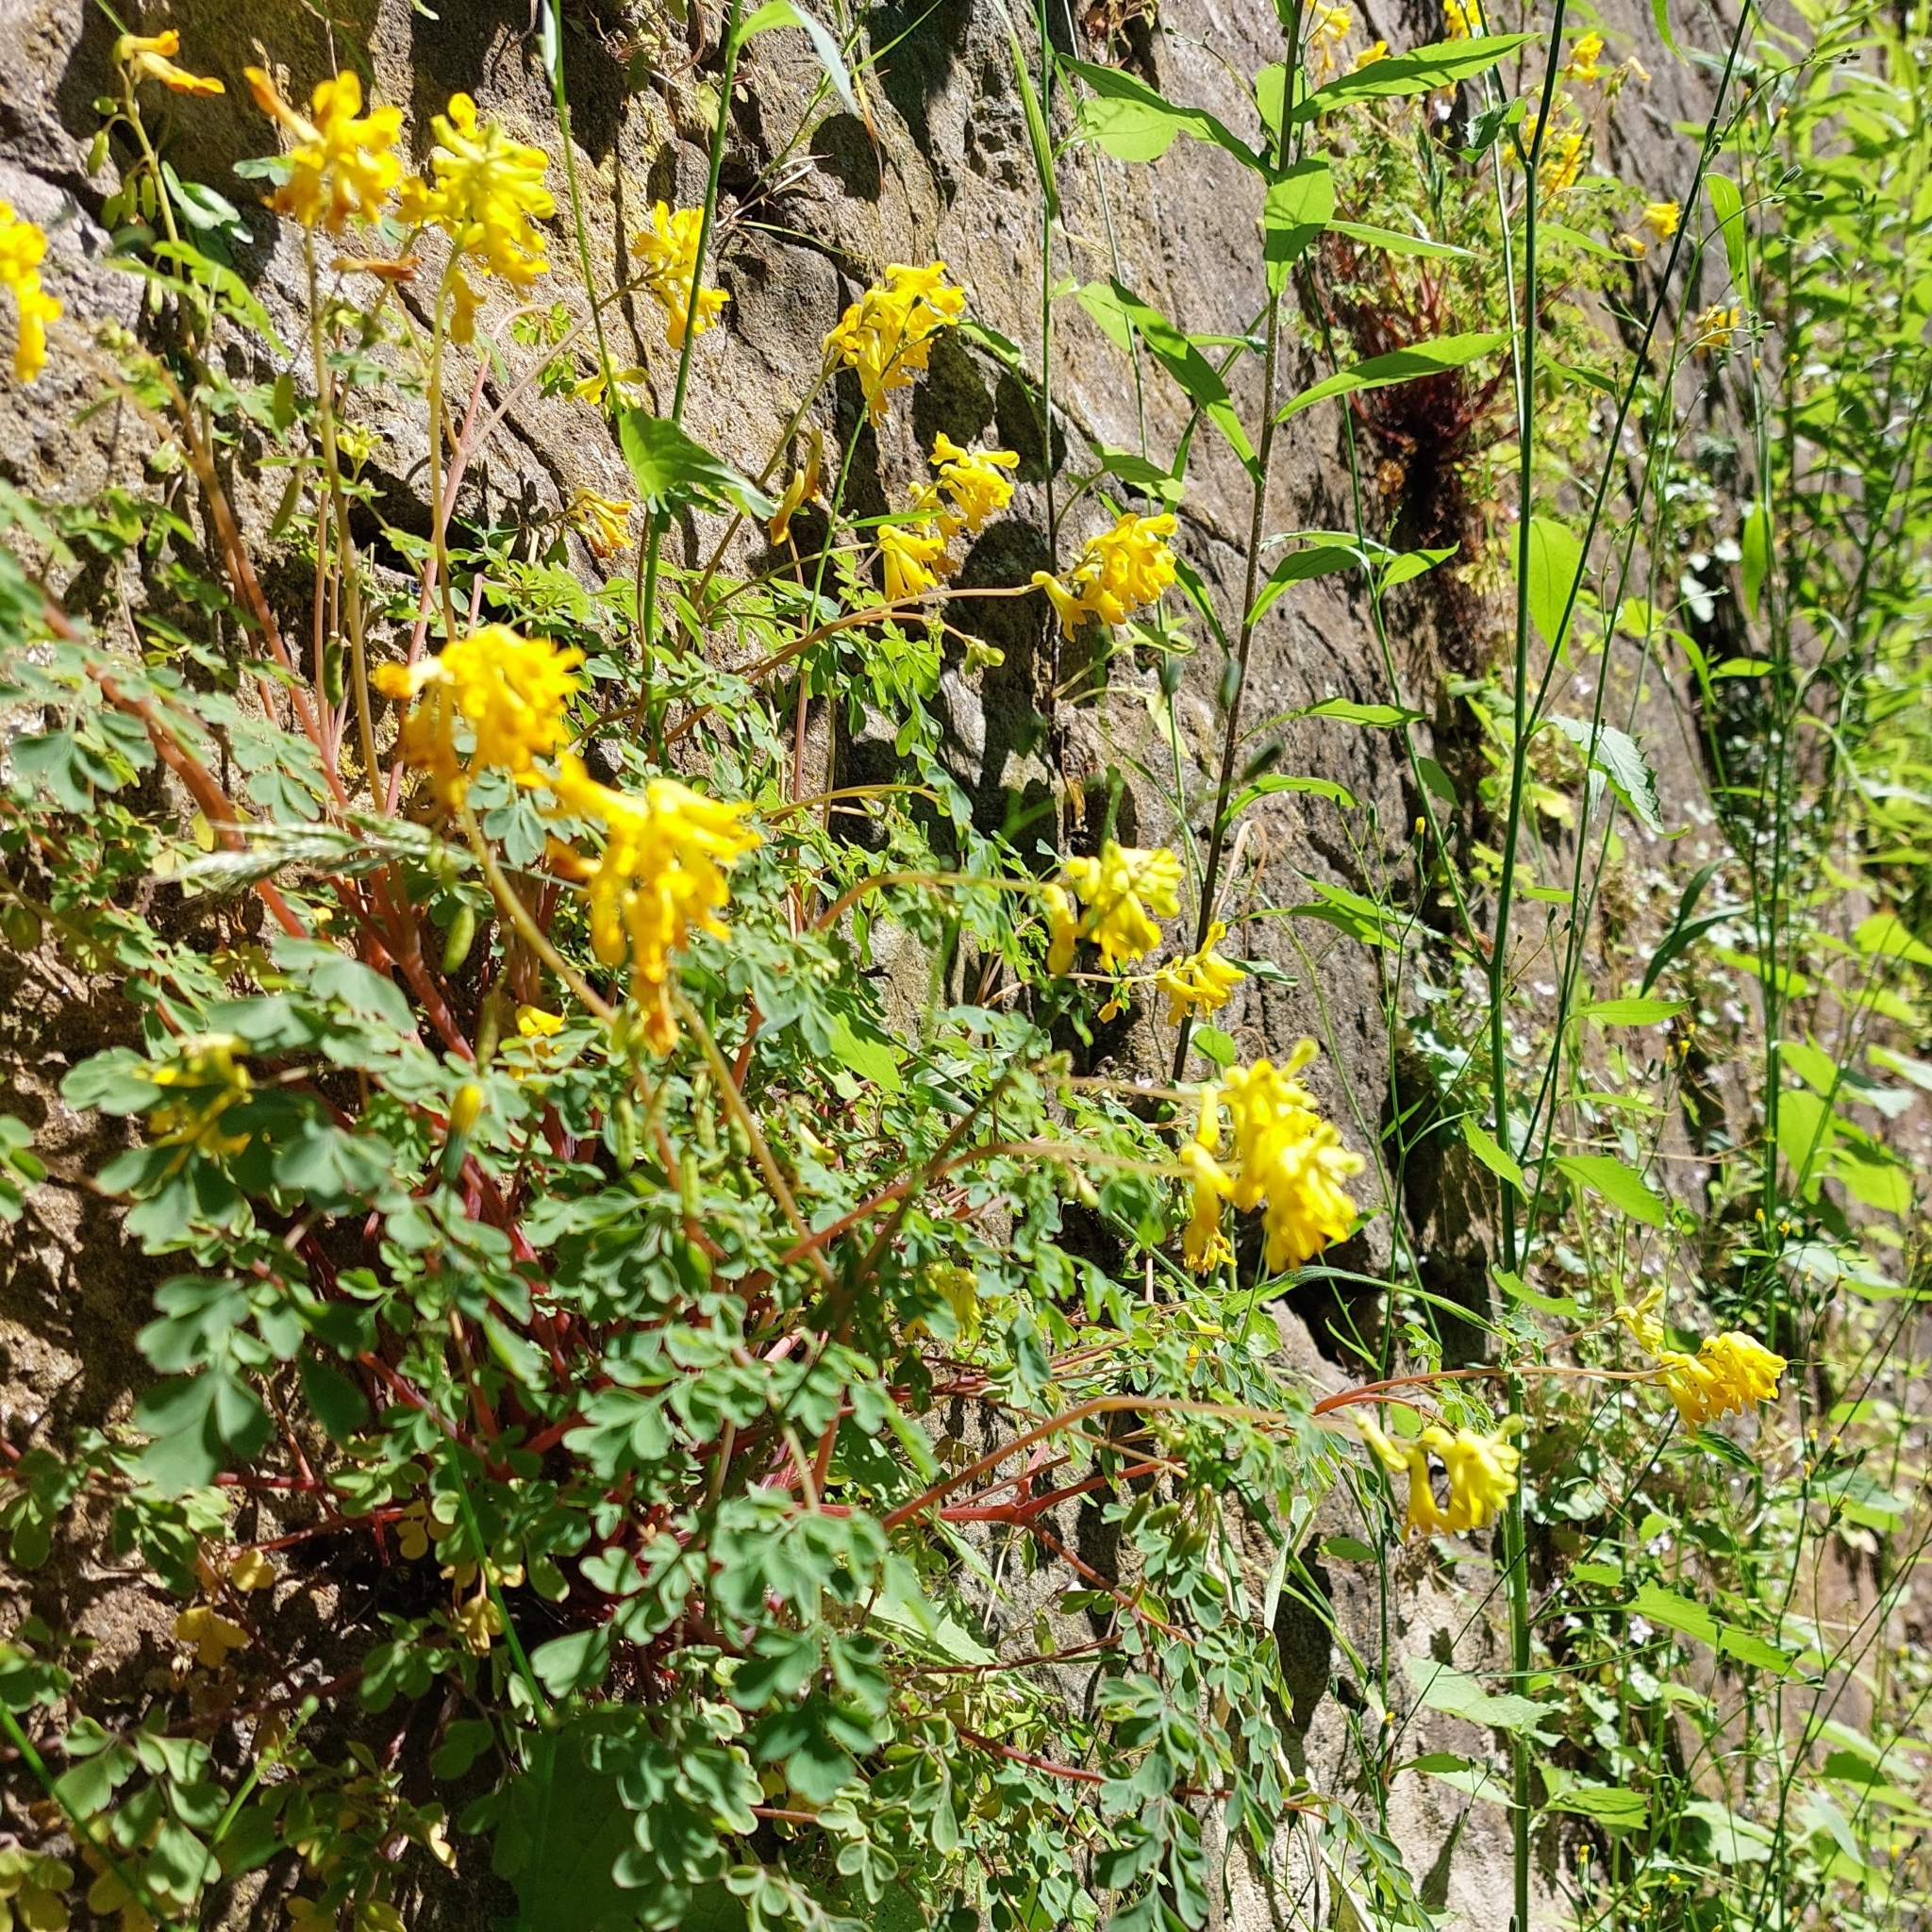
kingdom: Plantae
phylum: Tracheophyta
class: Magnoliopsida
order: Ranunculales
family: Papaveraceae
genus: Pseudofumaria
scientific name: Pseudofumaria lutea
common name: Yellow corydalis
